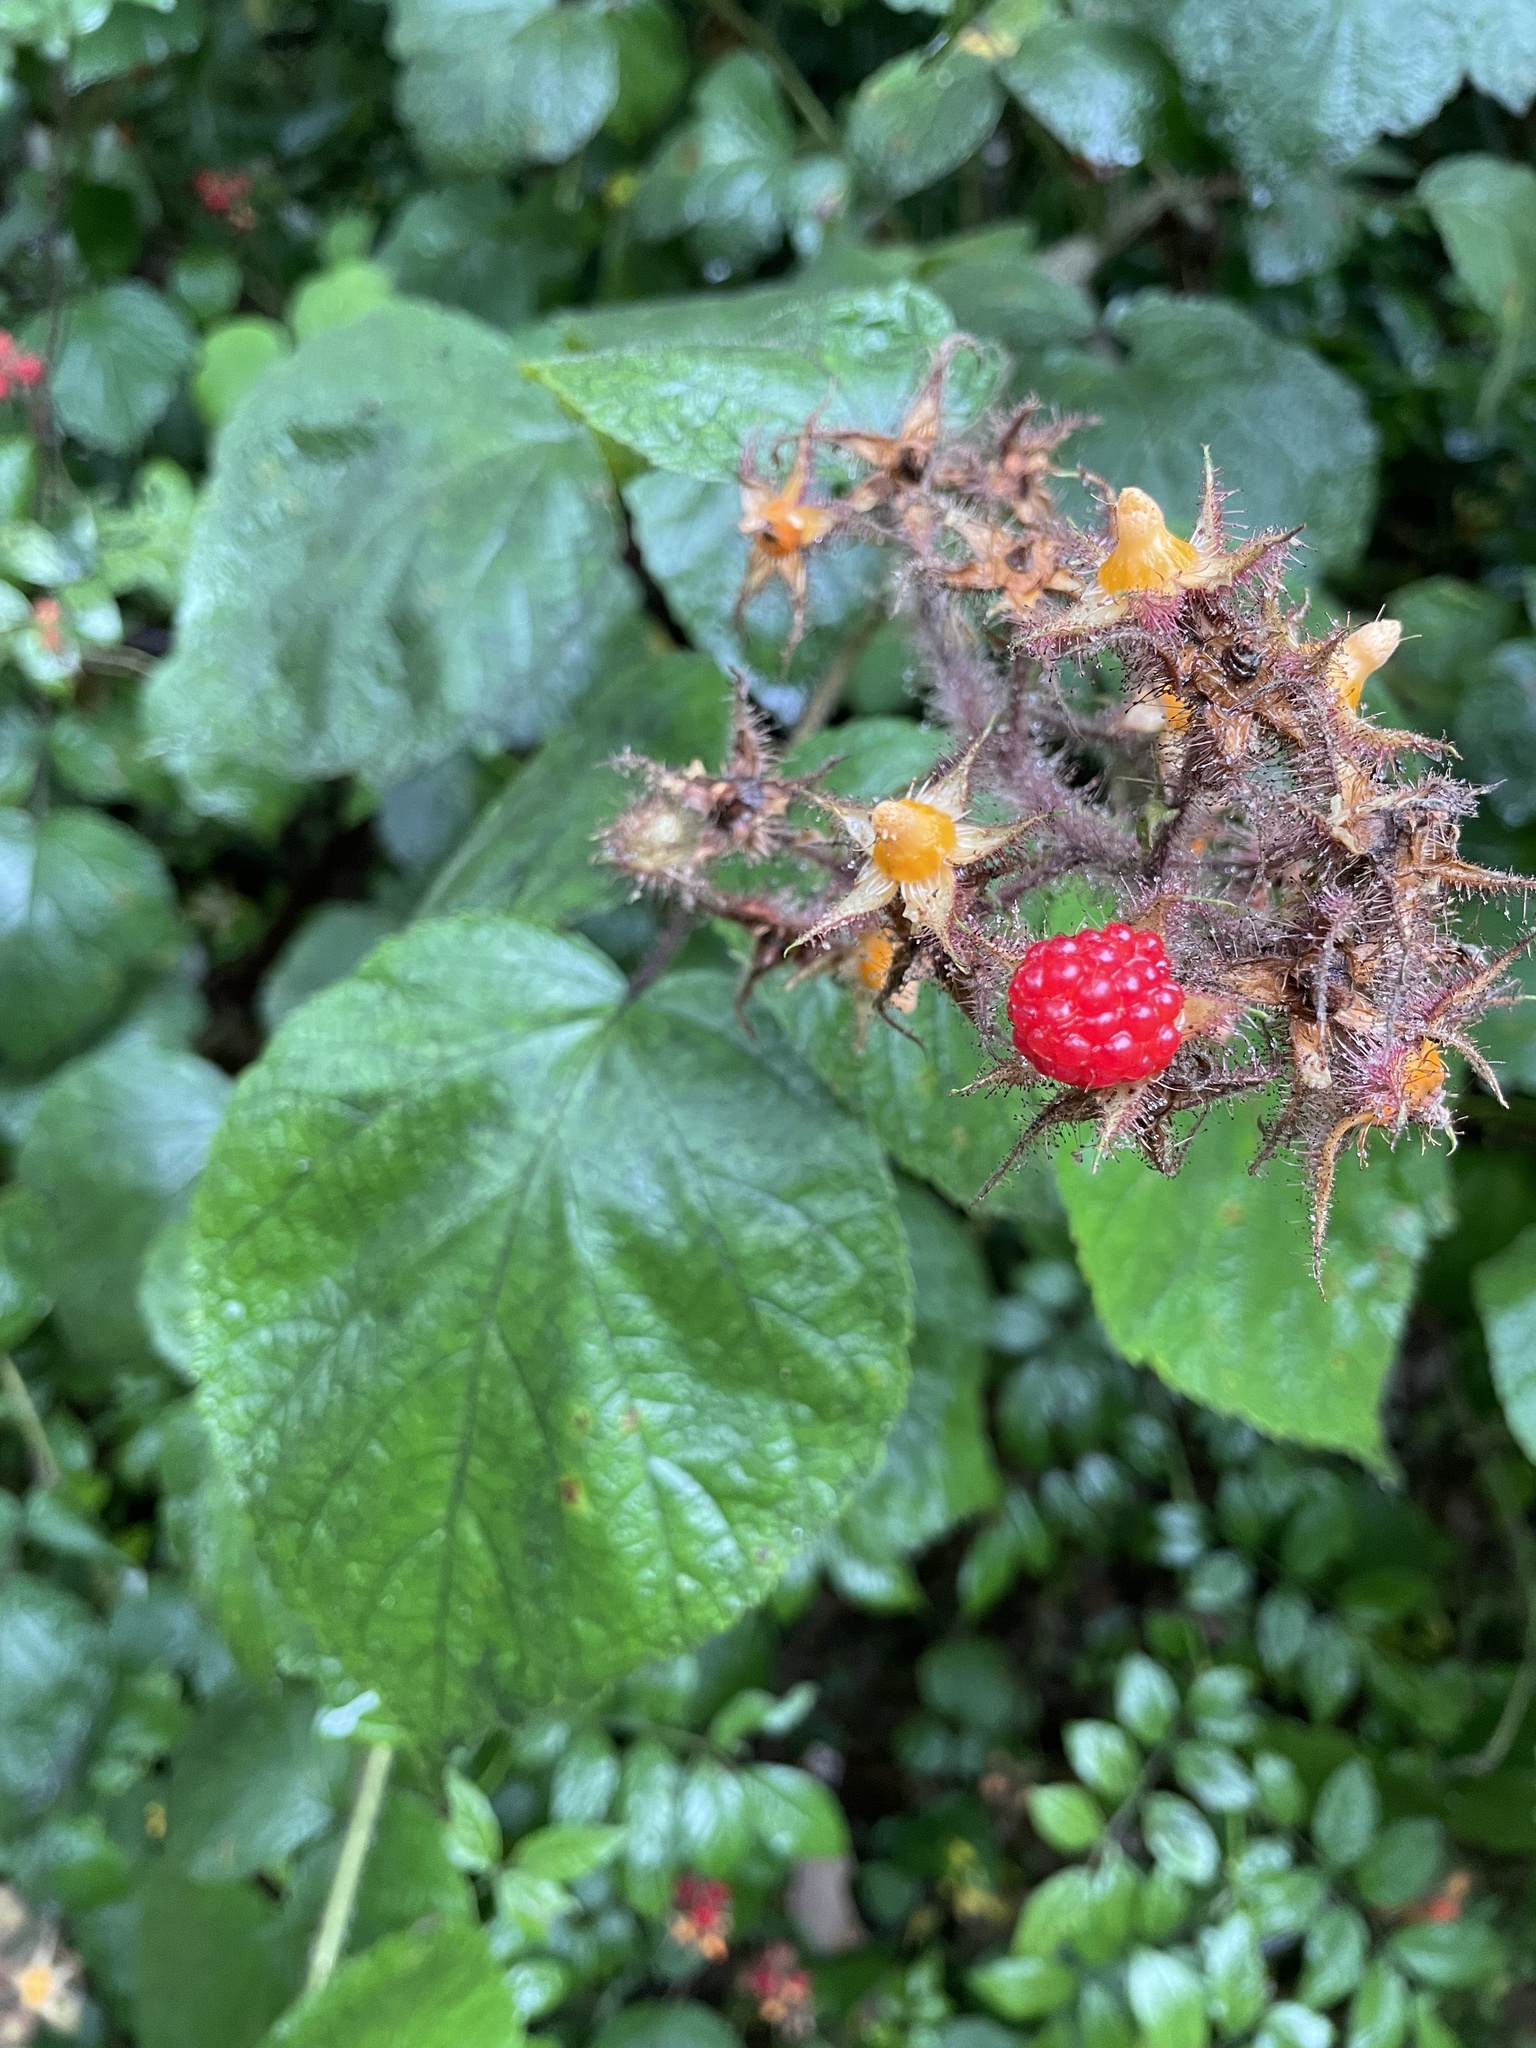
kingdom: Plantae
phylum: Tracheophyta
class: Magnoliopsida
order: Rosales
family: Rosaceae
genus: Rubus
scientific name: Rubus phoenicolasius
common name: Japanese wineberry
